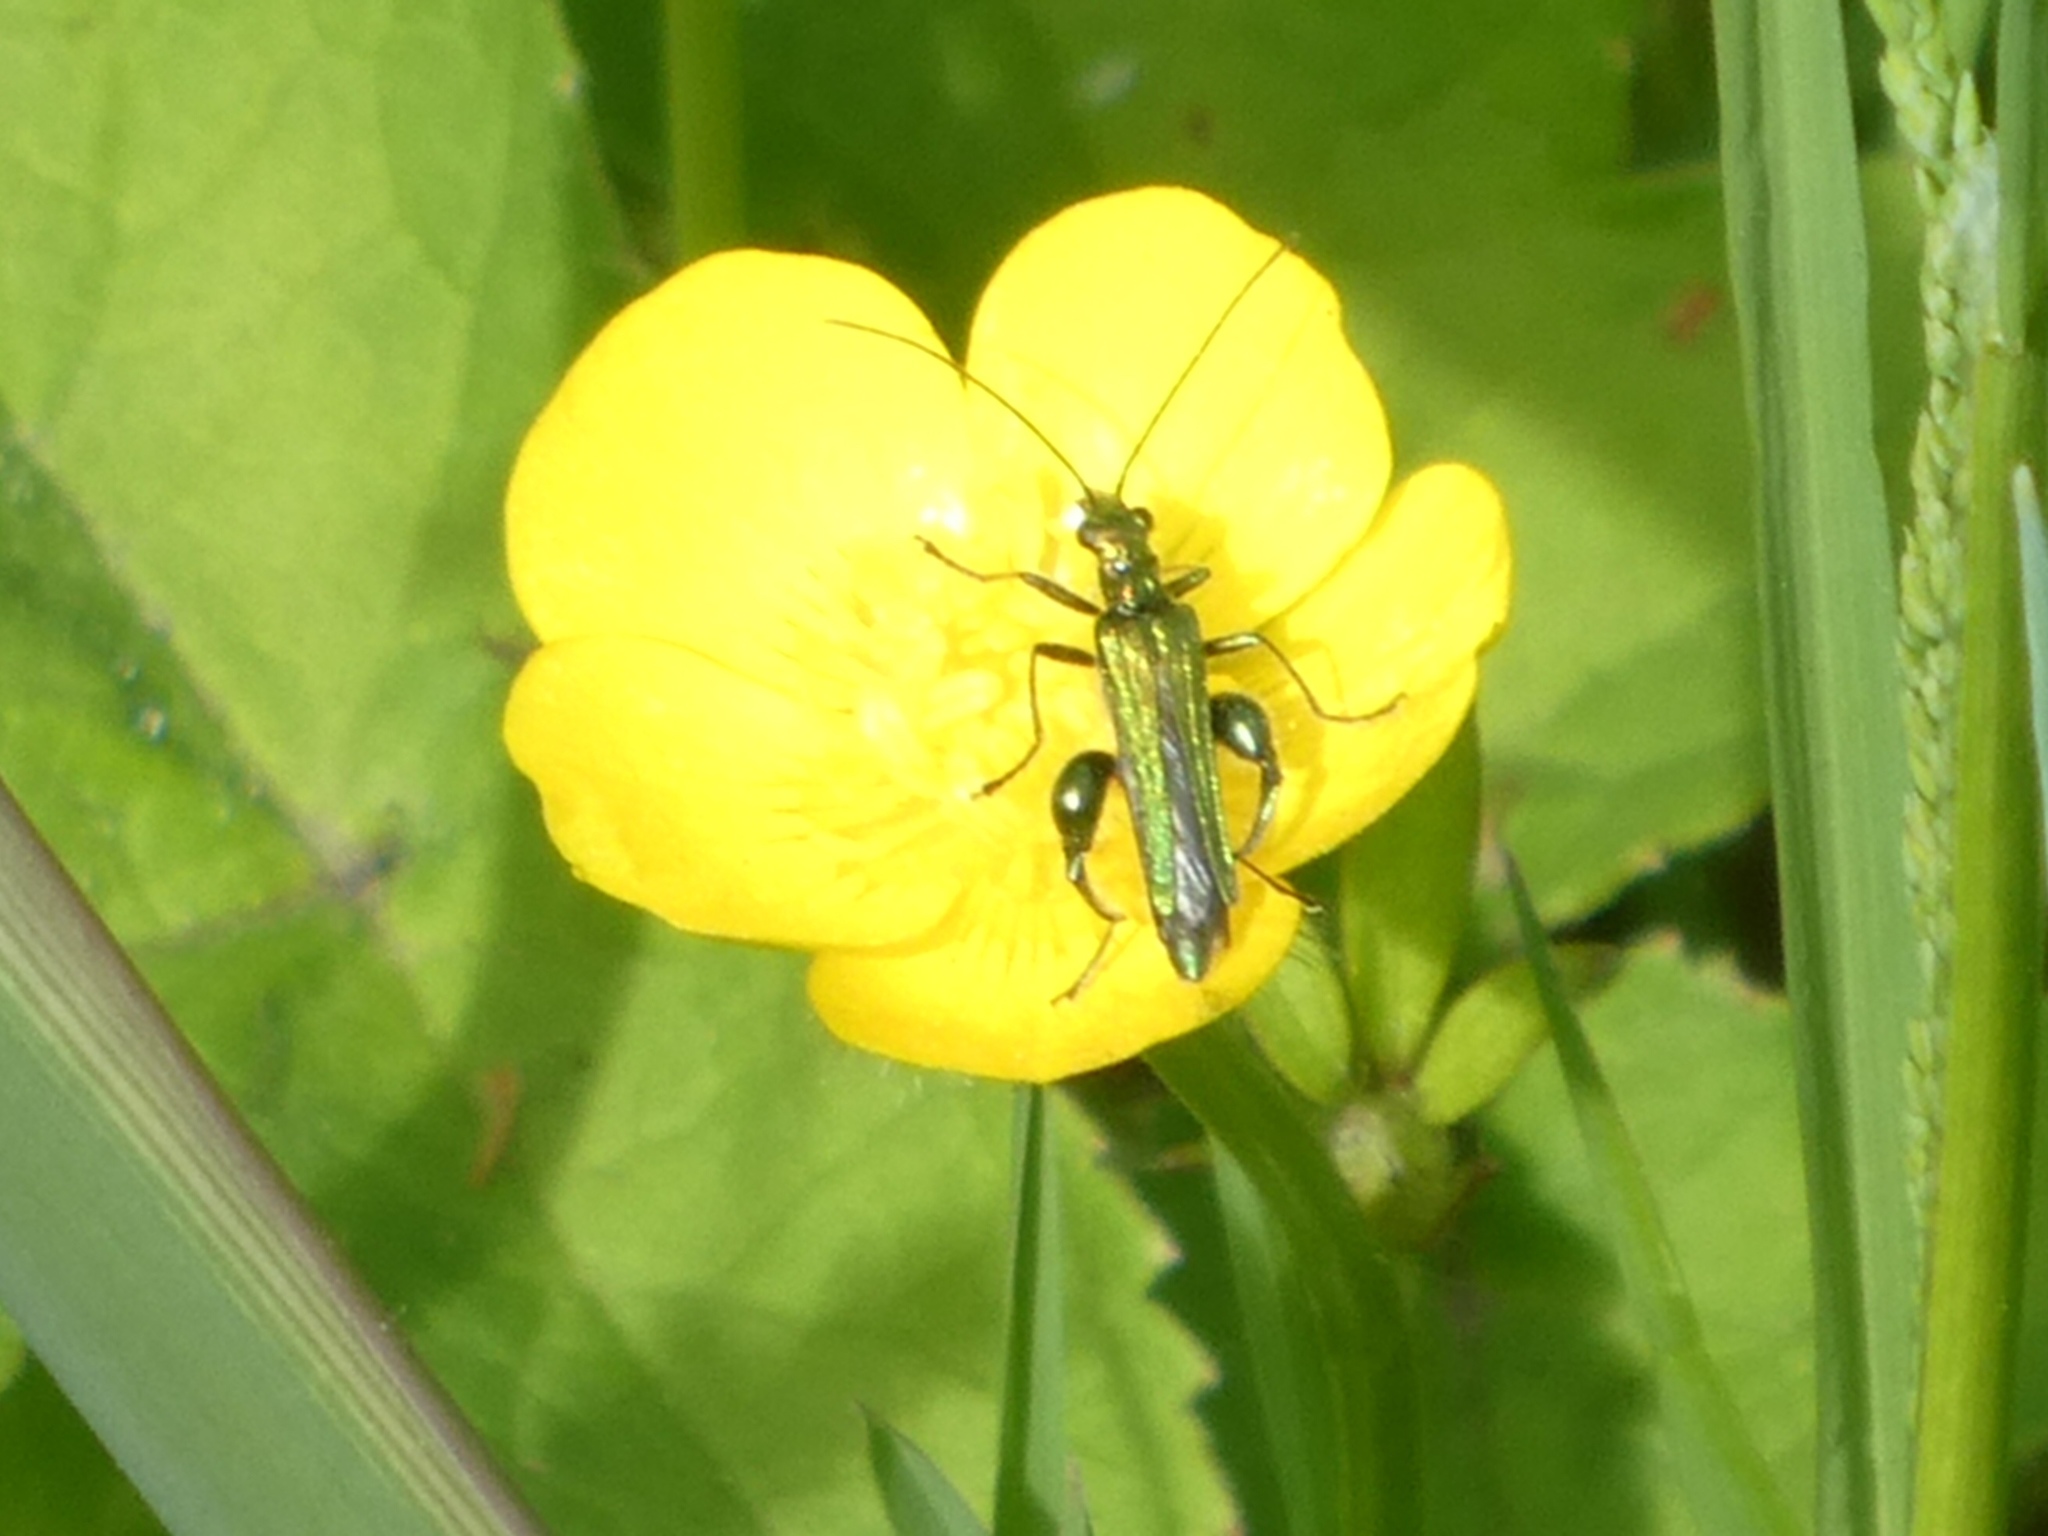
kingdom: Animalia
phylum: Arthropoda
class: Insecta
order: Coleoptera
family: Oedemeridae
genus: Oedemera
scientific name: Oedemera nobilis
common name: Swollen-thighed beetle
